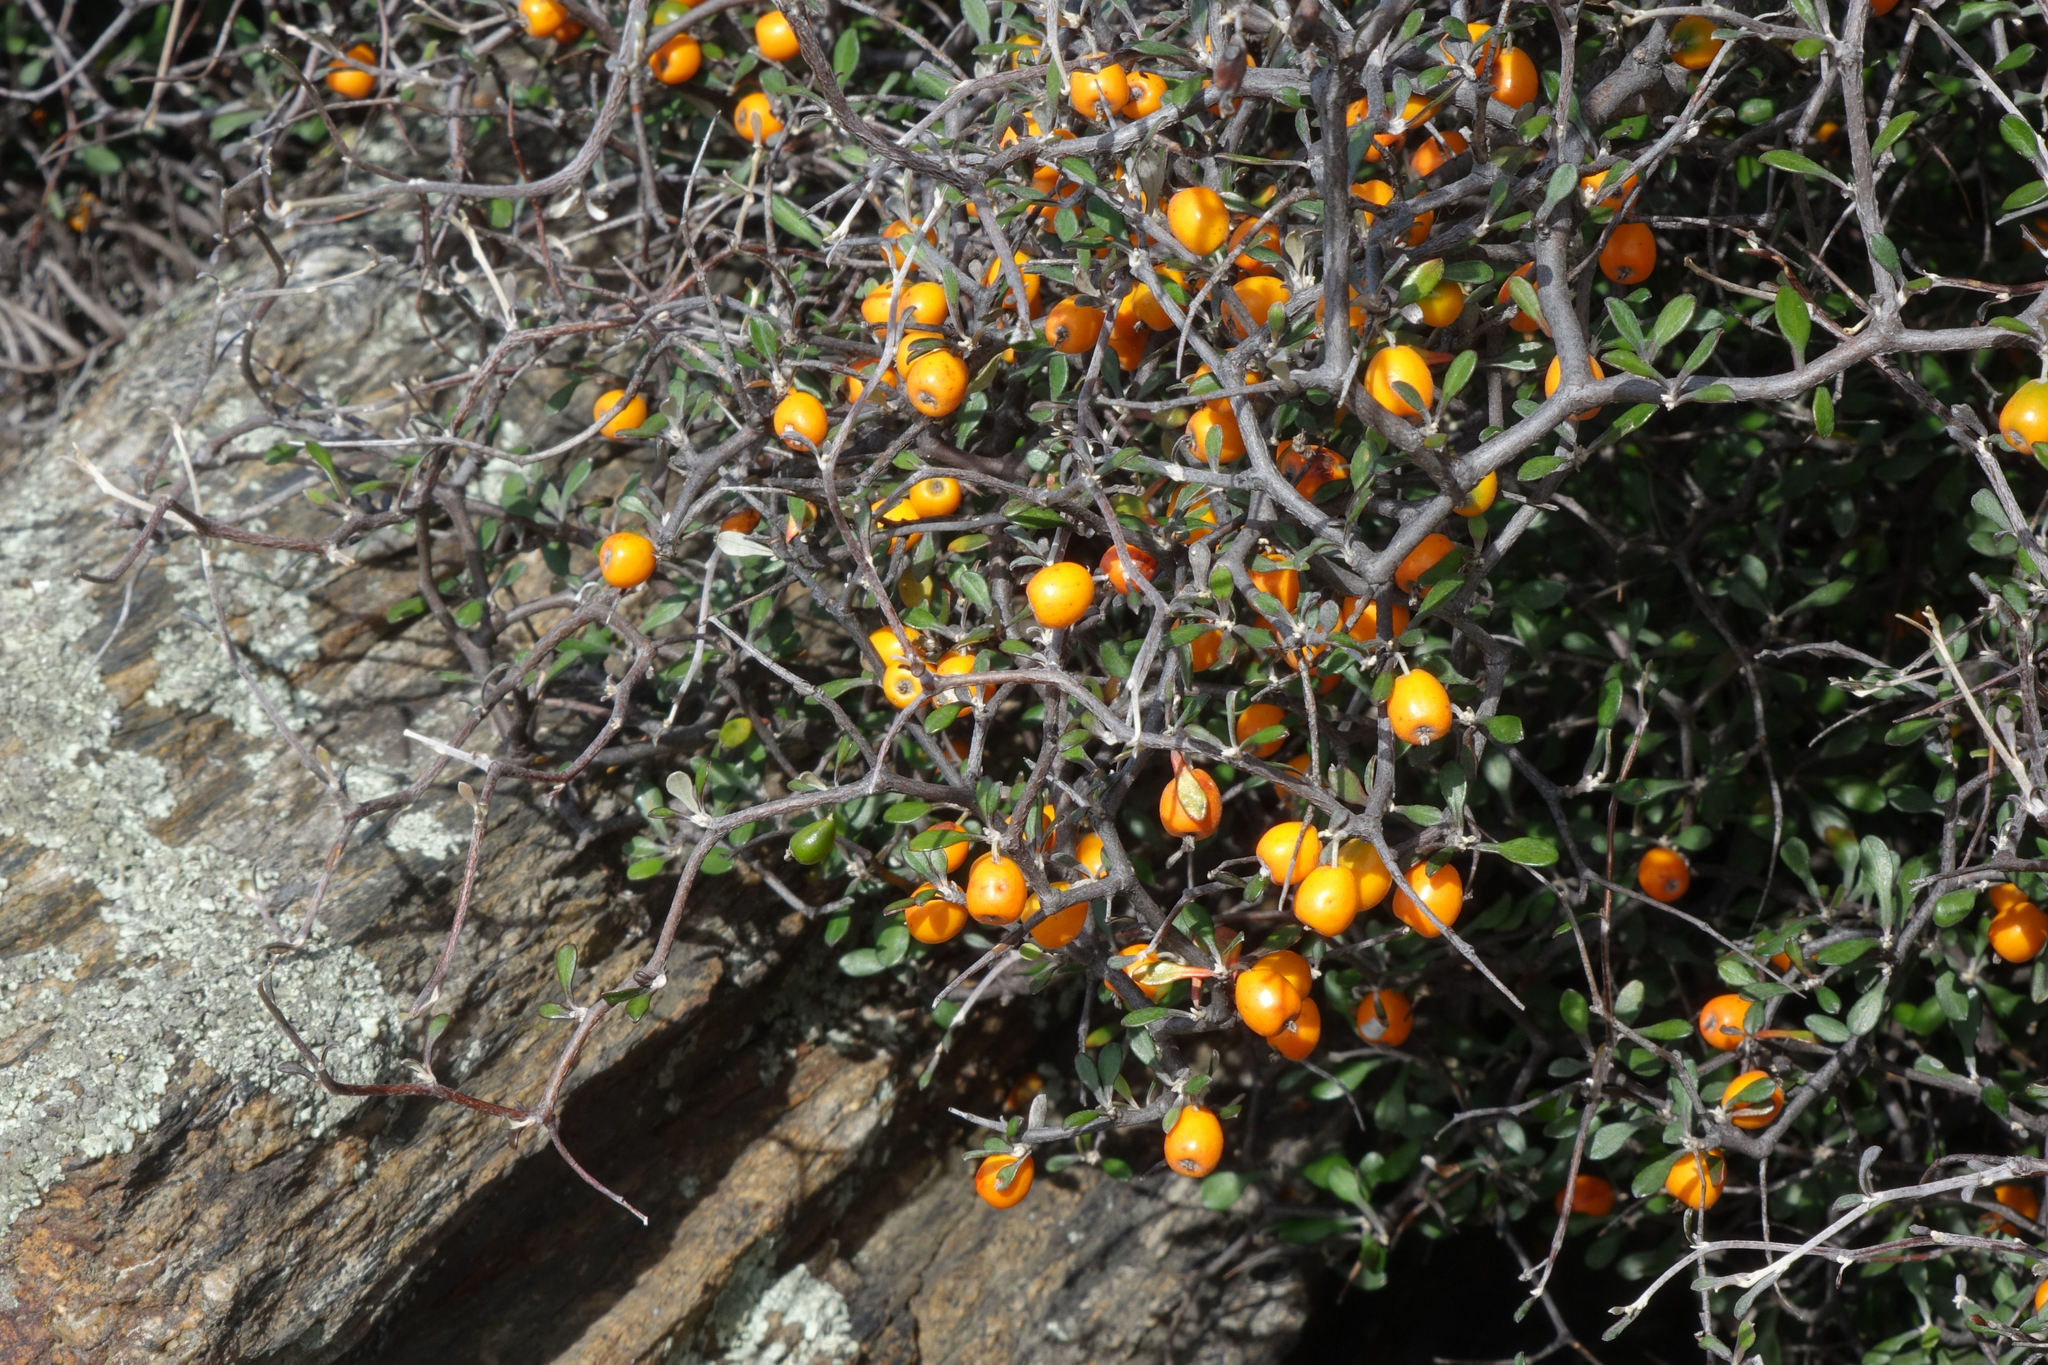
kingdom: Plantae
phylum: Tracheophyta
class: Magnoliopsida
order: Asterales
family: Argophyllaceae
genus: Corokia
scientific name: Corokia cotoneaster
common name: Wire nettingbush
